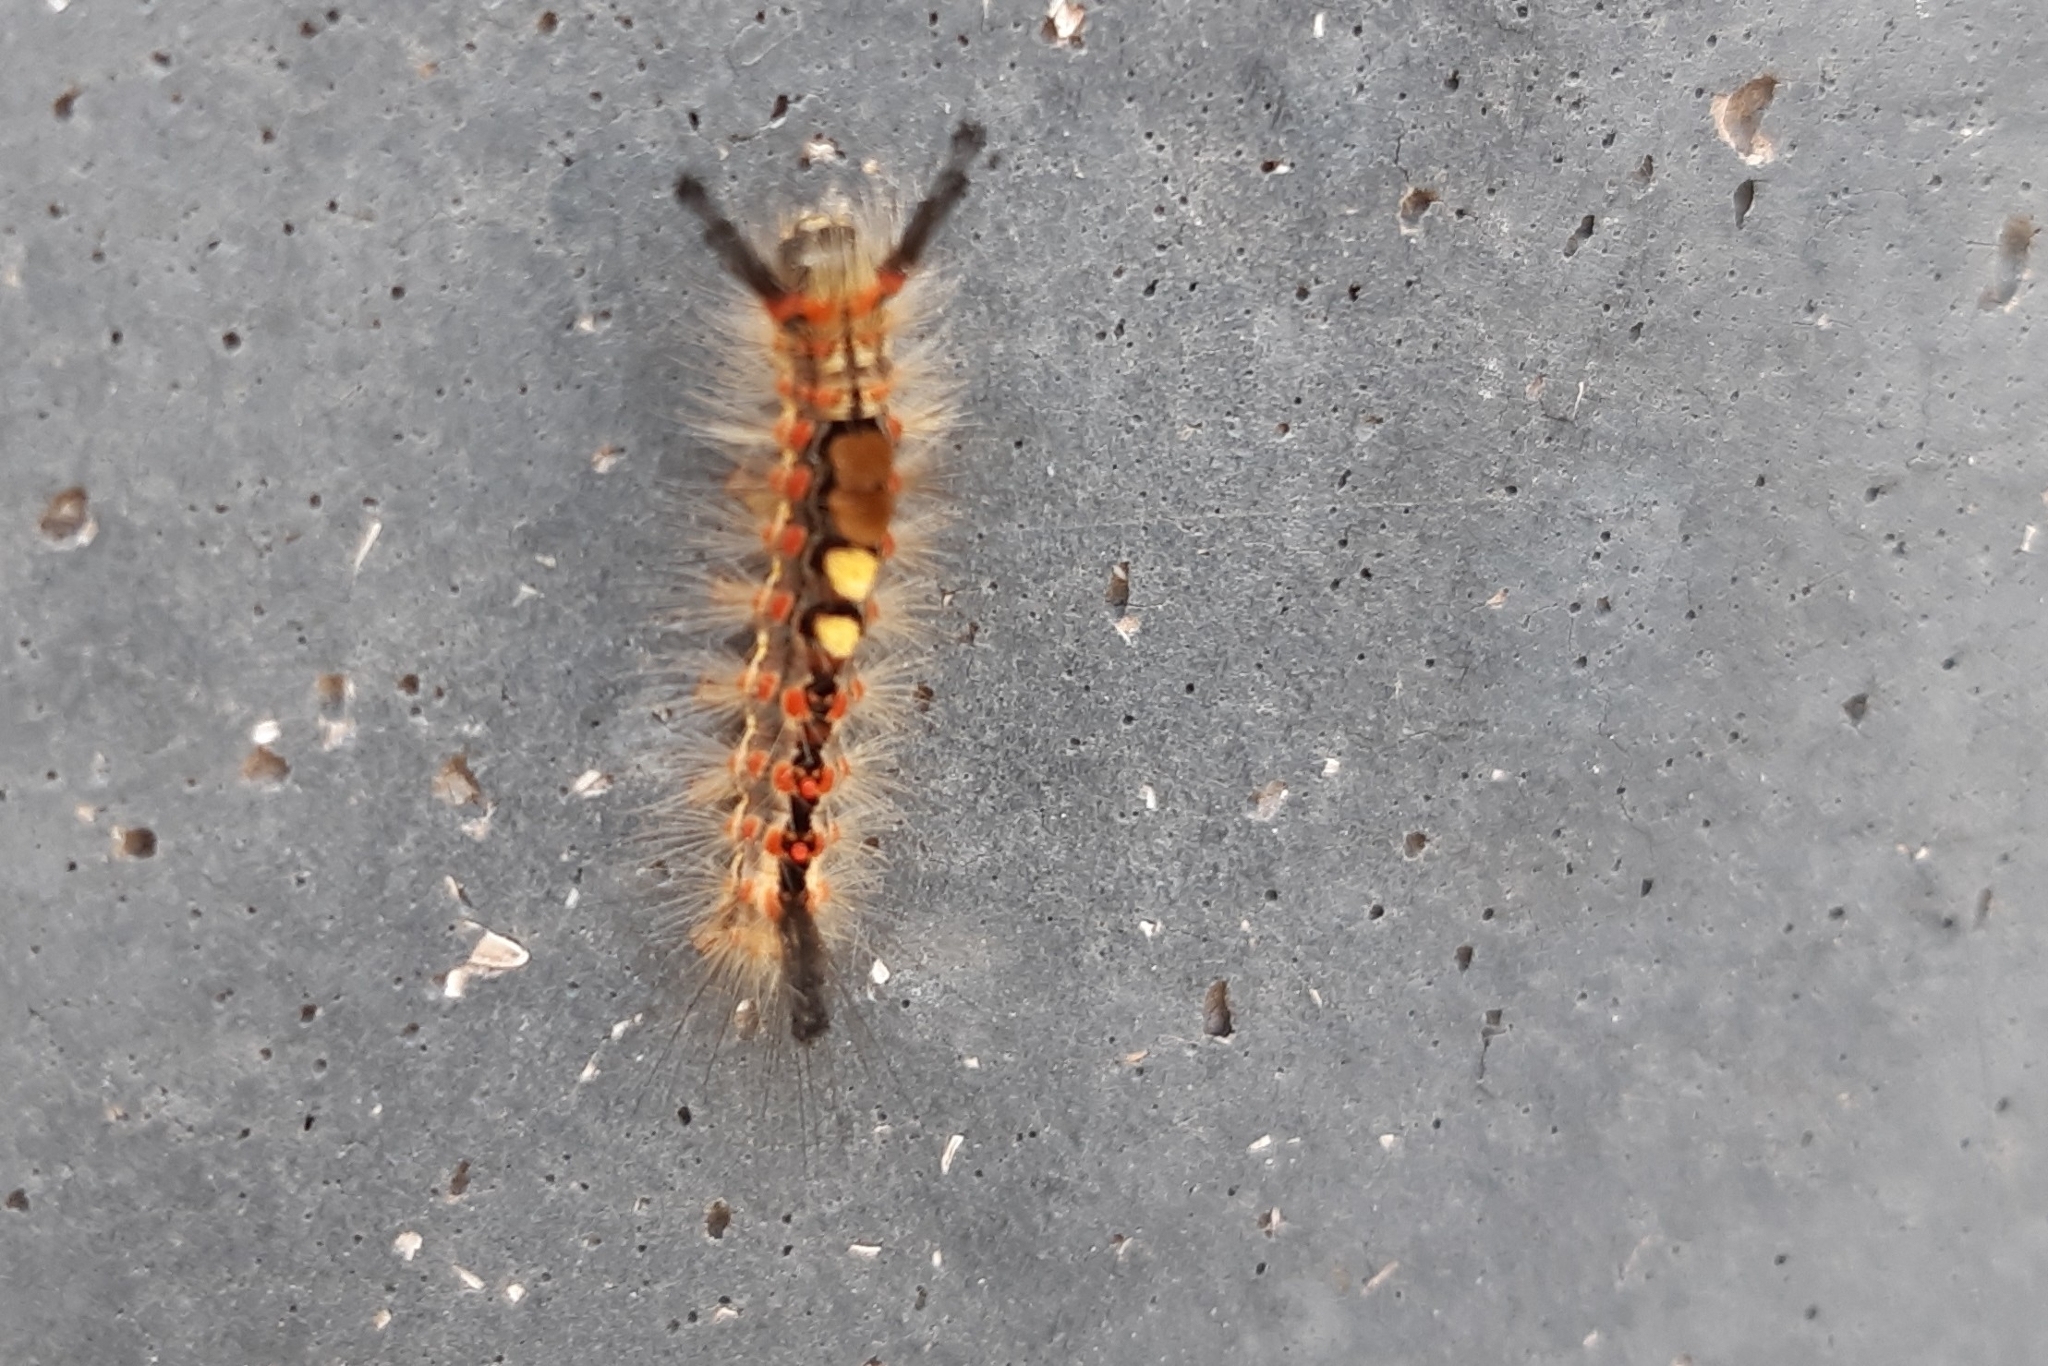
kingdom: Animalia
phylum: Arthropoda
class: Insecta
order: Lepidoptera
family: Erebidae
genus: Orgyia
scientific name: Orgyia antiqua
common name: Vapourer
